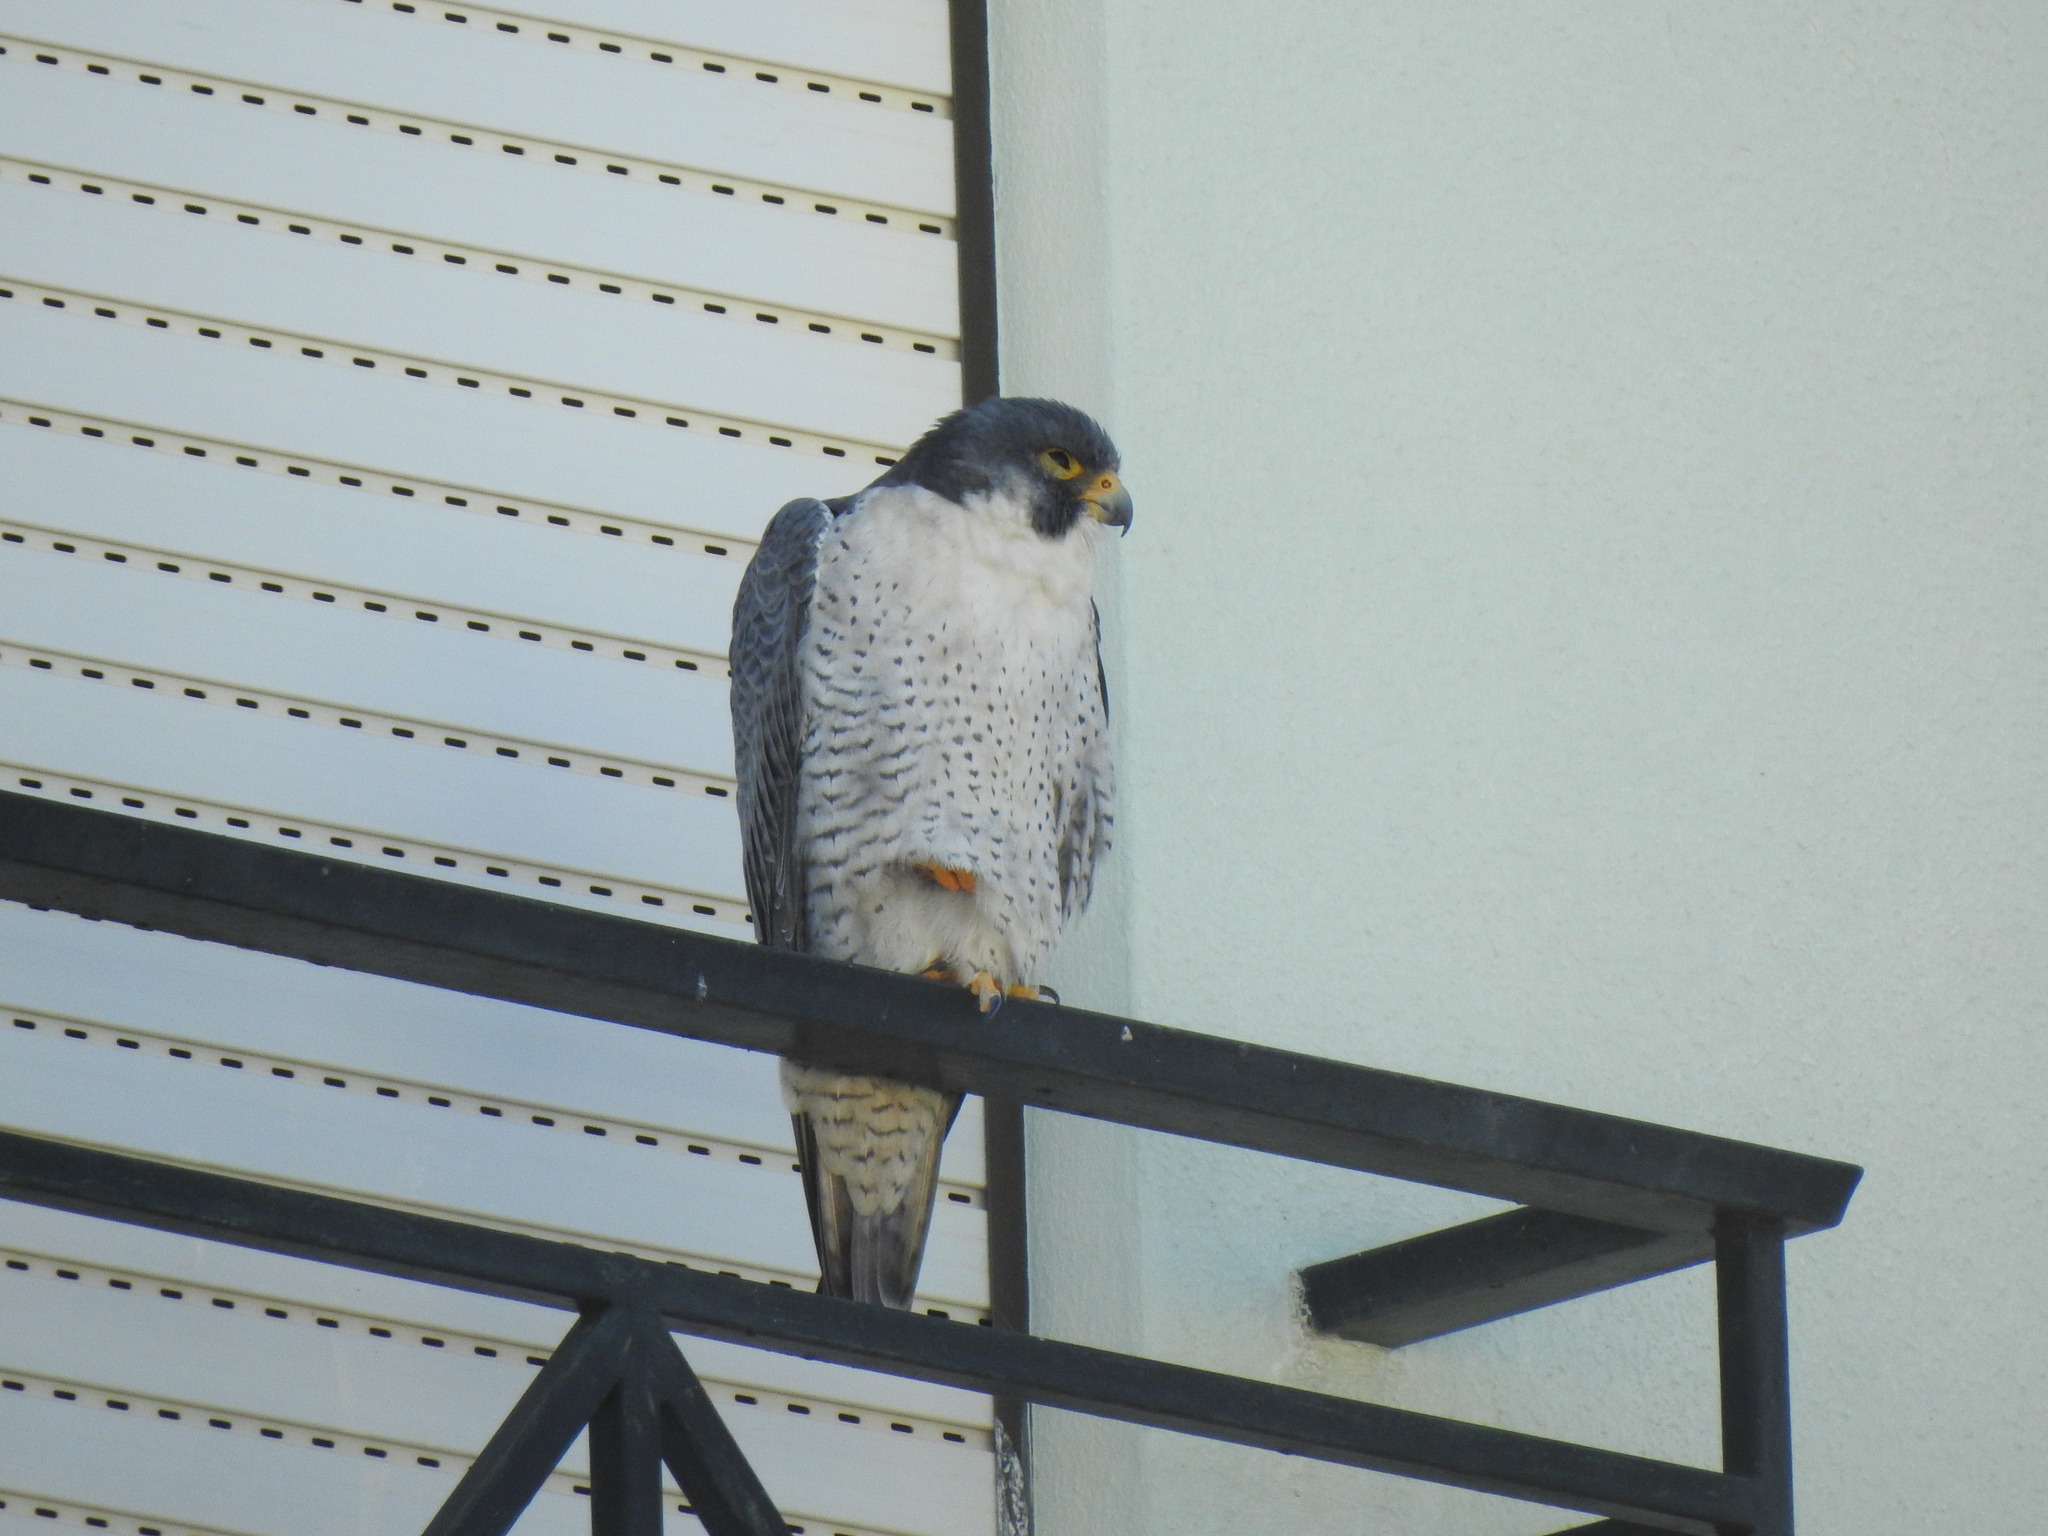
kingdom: Animalia
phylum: Chordata
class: Aves
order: Falconiformes
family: Falconidae
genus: Falco
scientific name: Falco peregrinus
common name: Peregrine falcon
